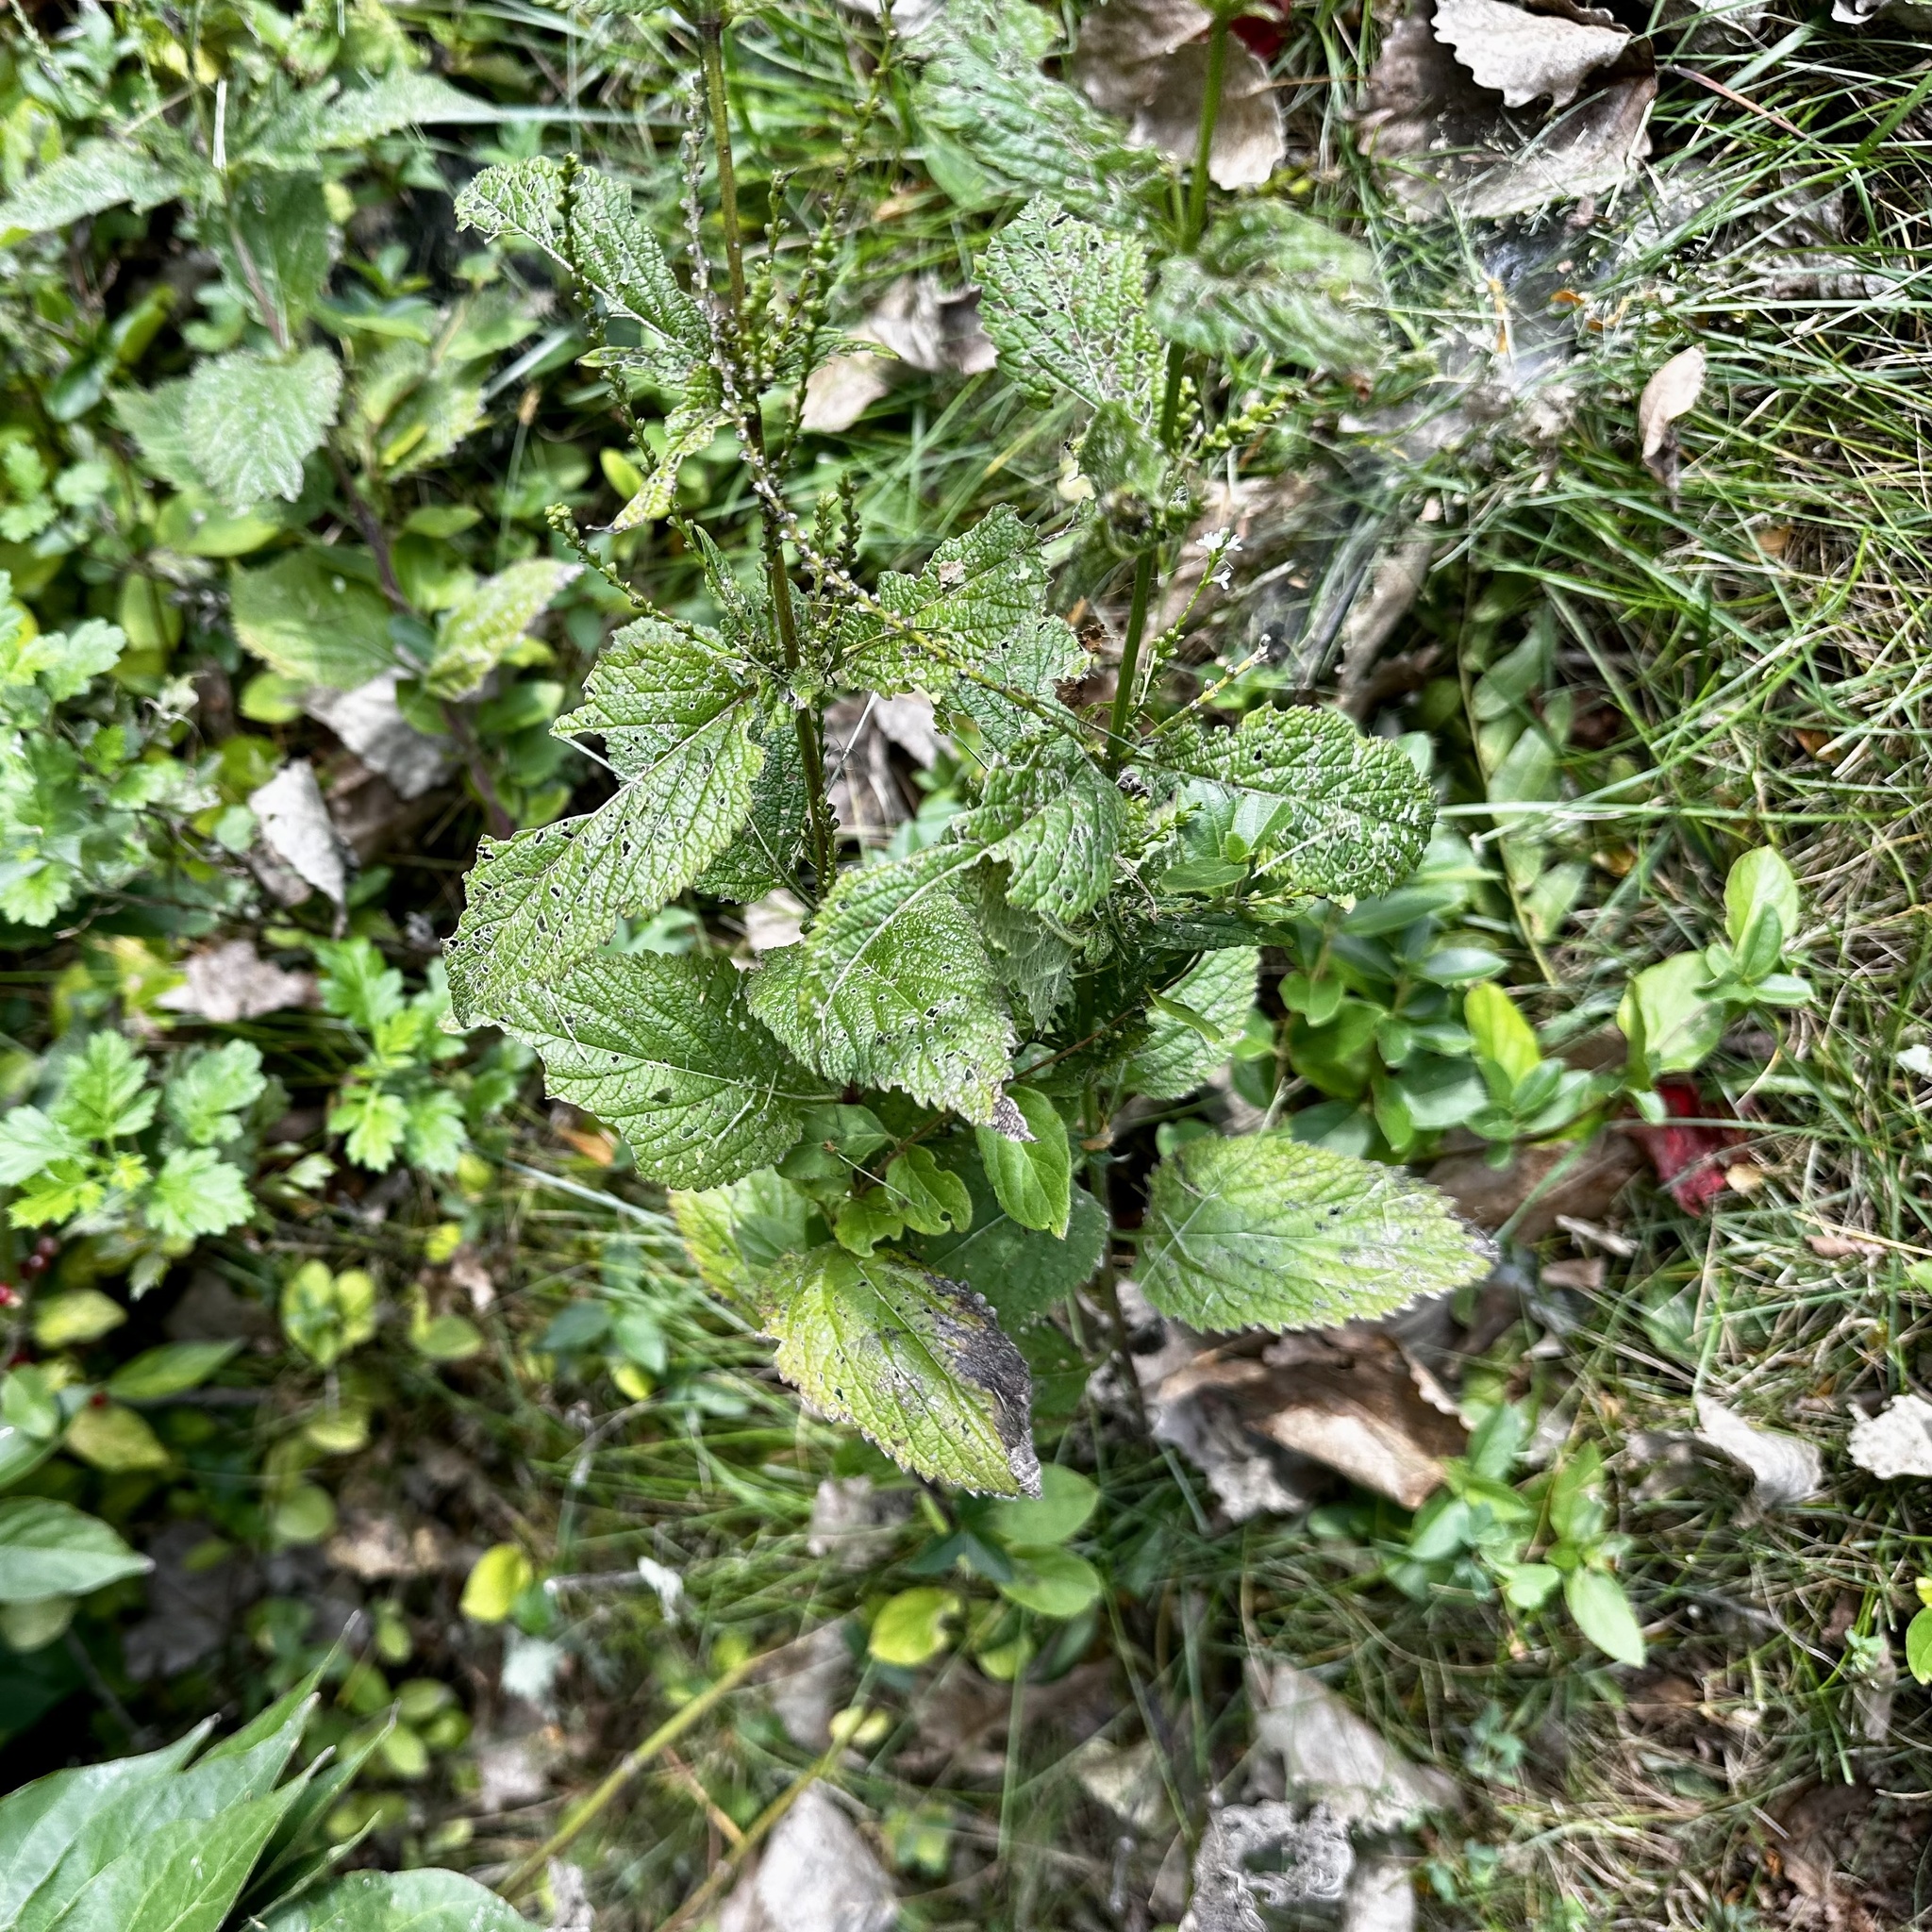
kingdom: Plantae
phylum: Tracheophyta
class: Magnoliopsida
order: Lamiales
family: Verbenaceae
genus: Verbena
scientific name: Verbena urticifolia
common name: Nettle-leaved vervain
